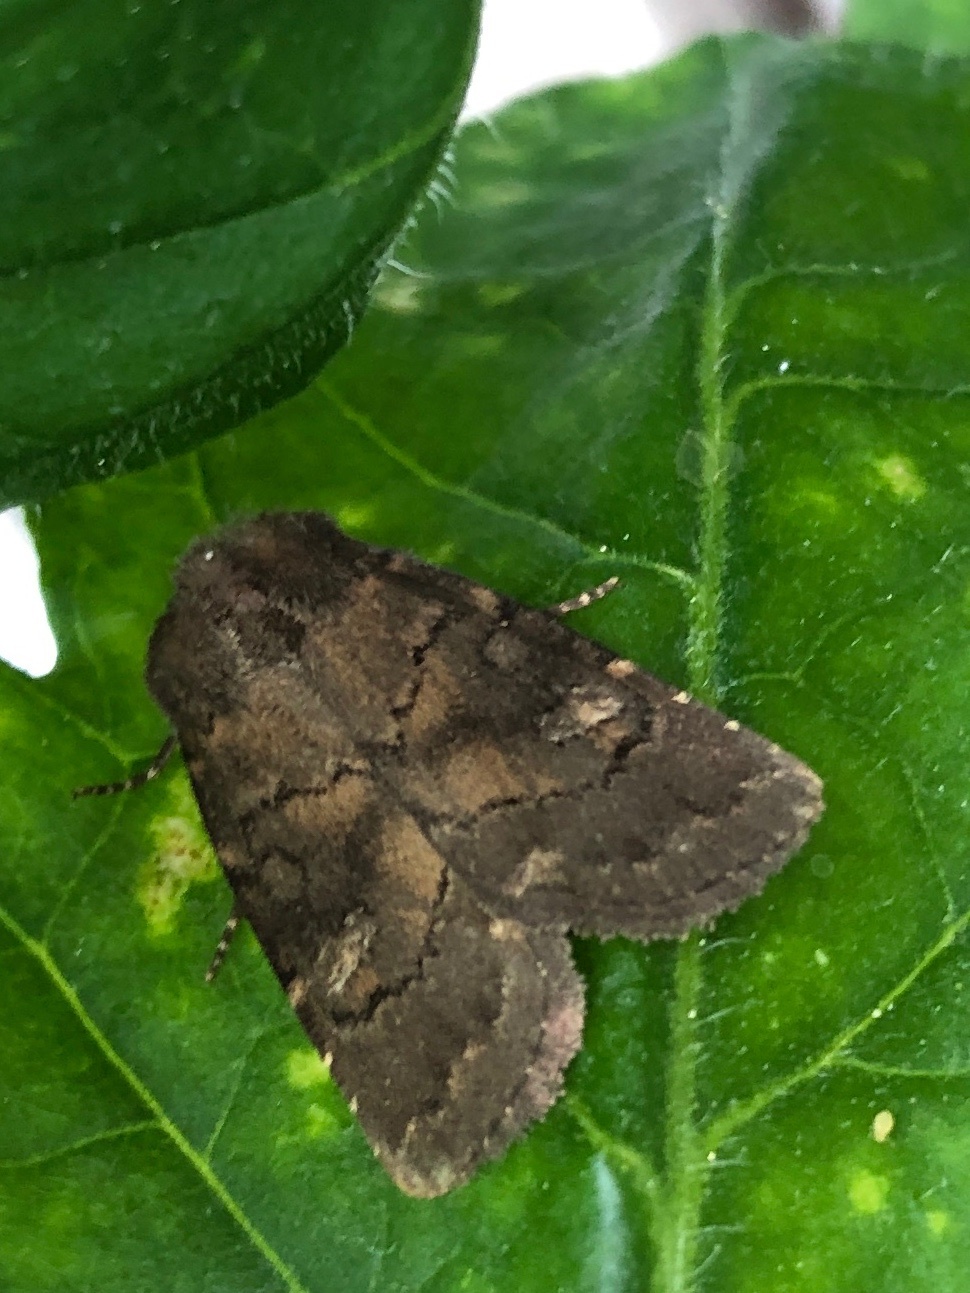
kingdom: Animalia
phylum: Arthropoda
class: Insecta
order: Lepidoptera
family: Noctuidae
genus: Charanyca
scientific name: Charanyca ferruginea
